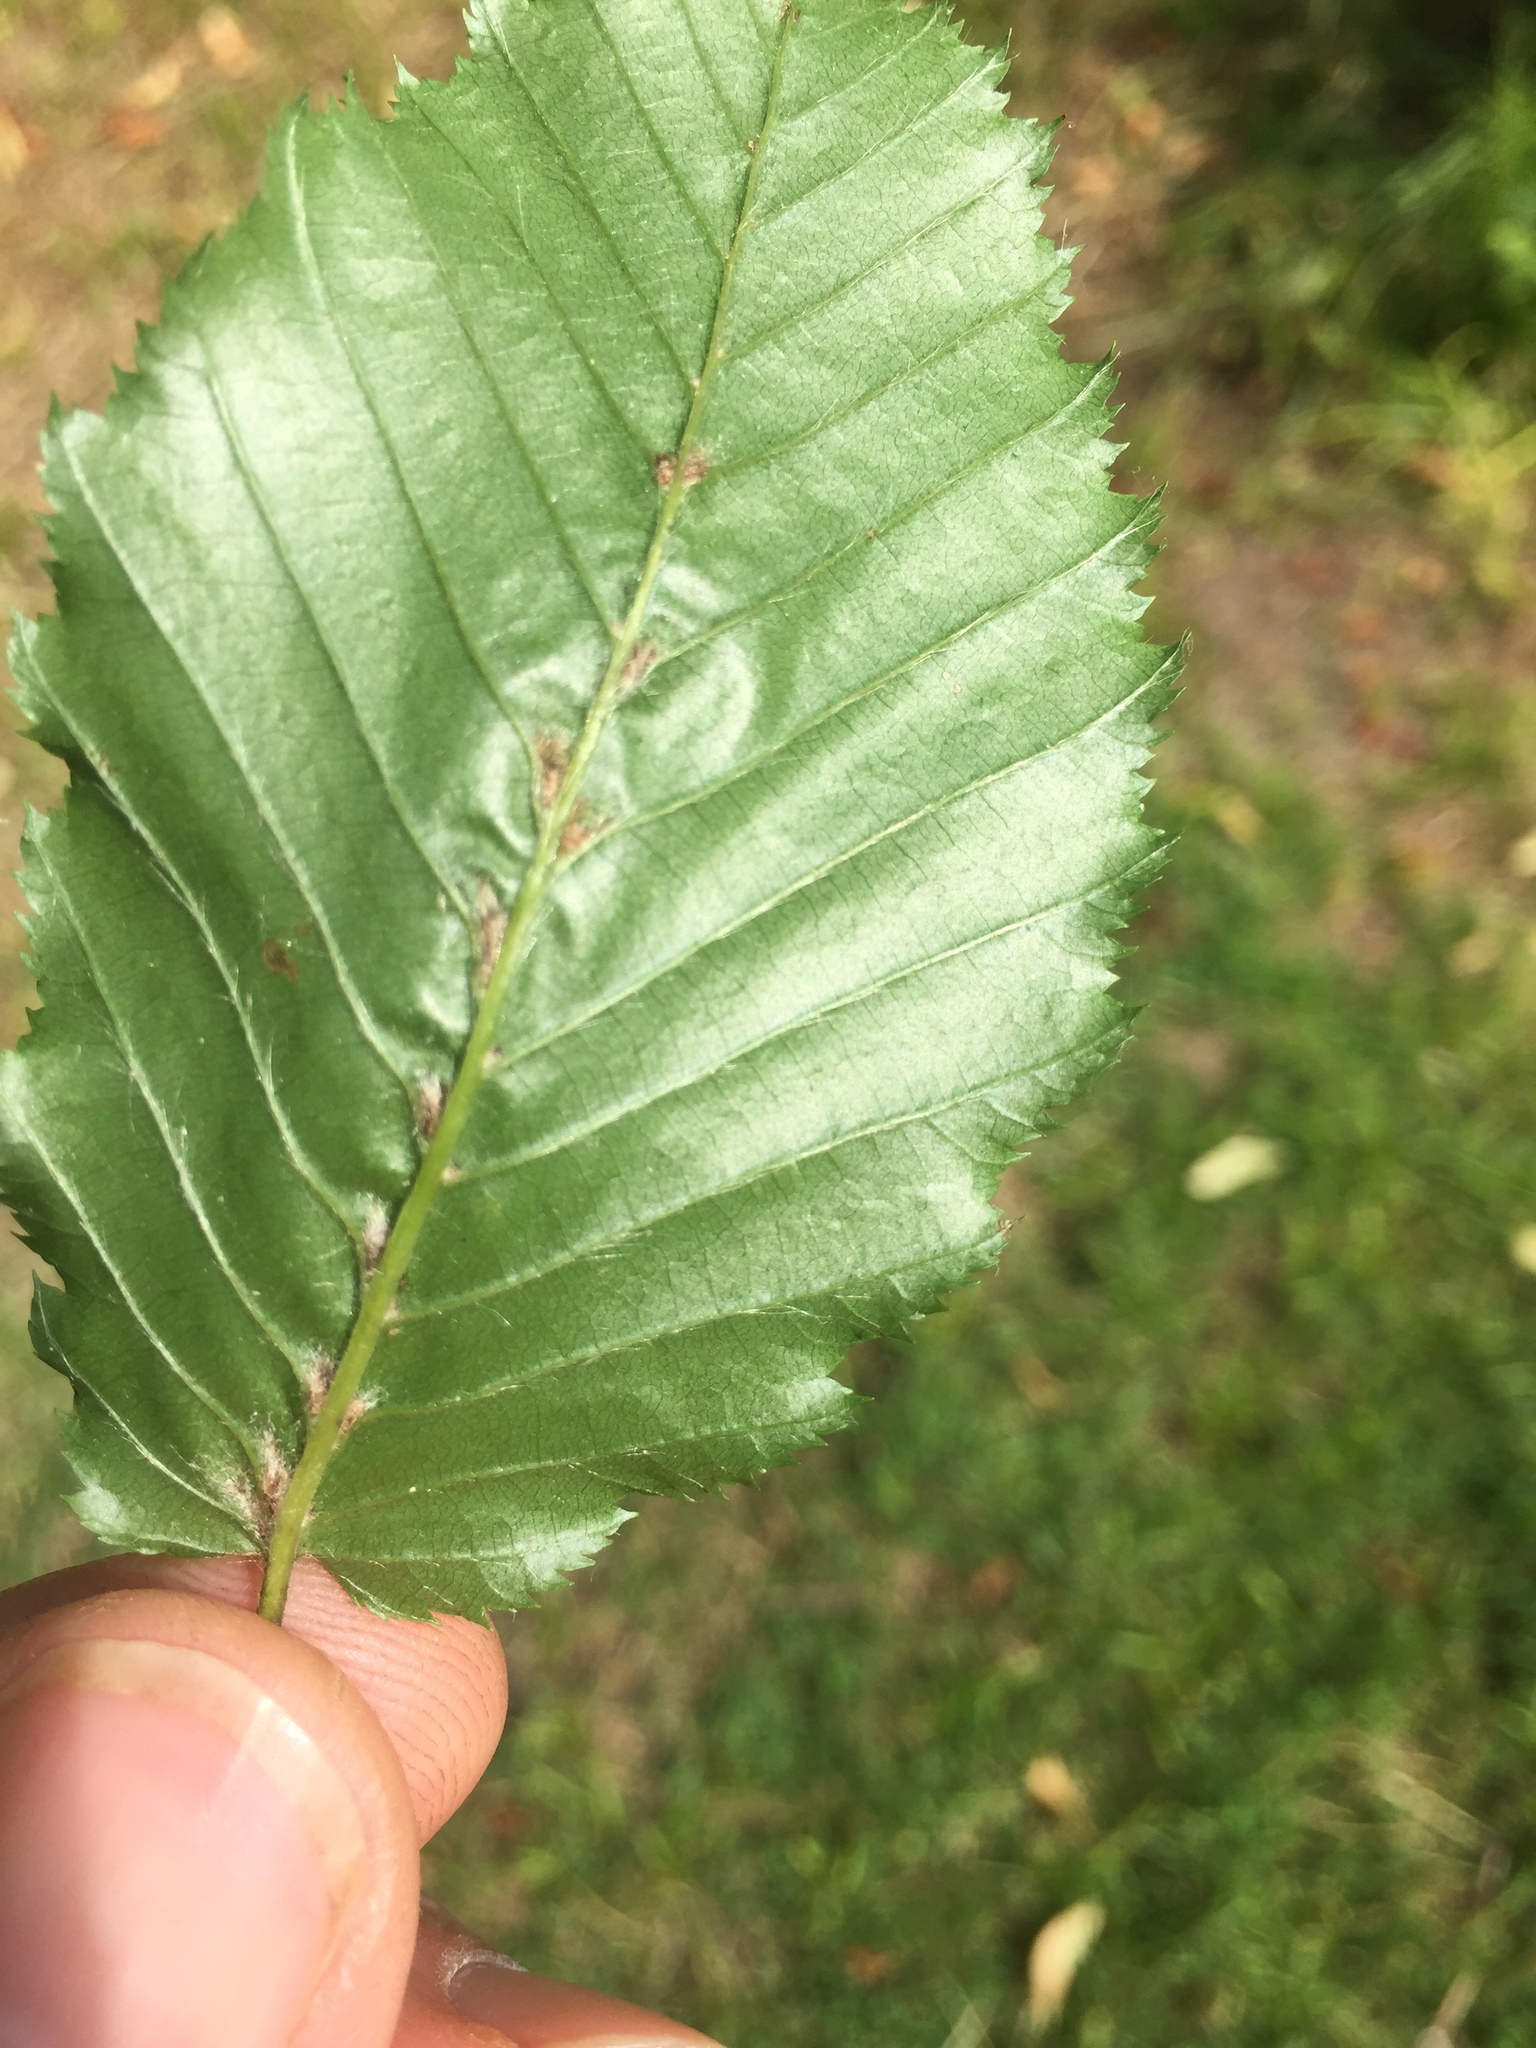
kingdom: Animalia
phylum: Arthropoda
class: Arachnida
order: Trombidiformes
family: Eriophyidae
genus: Aceria
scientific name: Aceria tenellus
